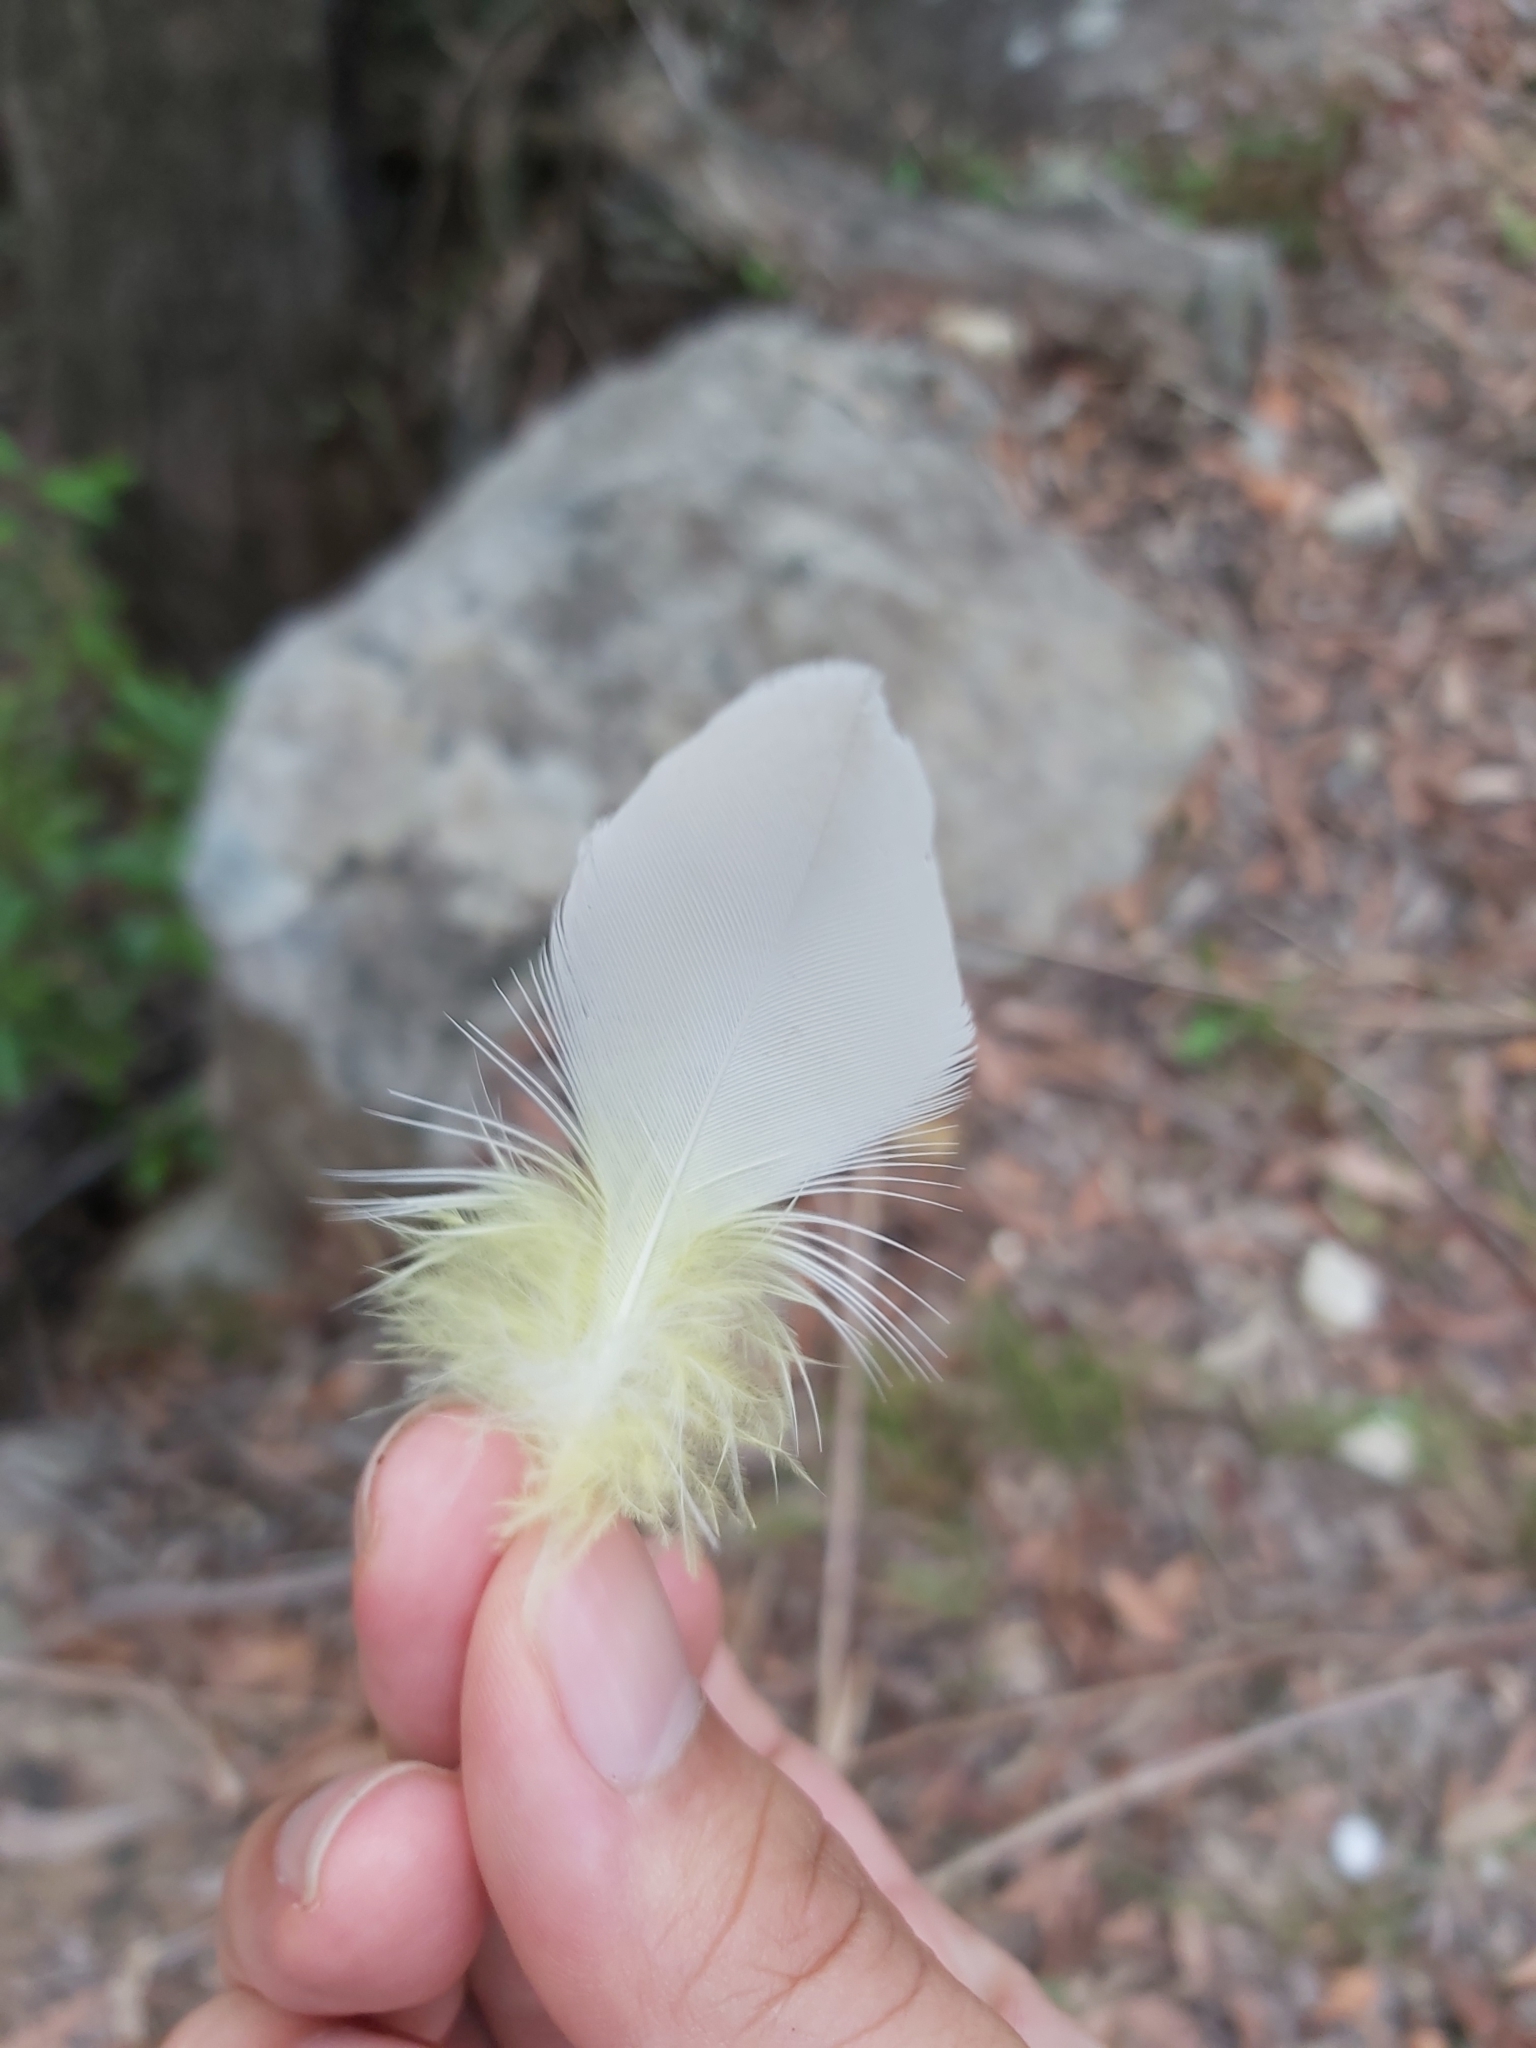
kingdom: Animalia
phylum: Chordata
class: Aves
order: Psittaciformes
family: Psittacidae
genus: Cacatua
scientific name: Cacatua galerita
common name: Sulphur-crested cockatoo
